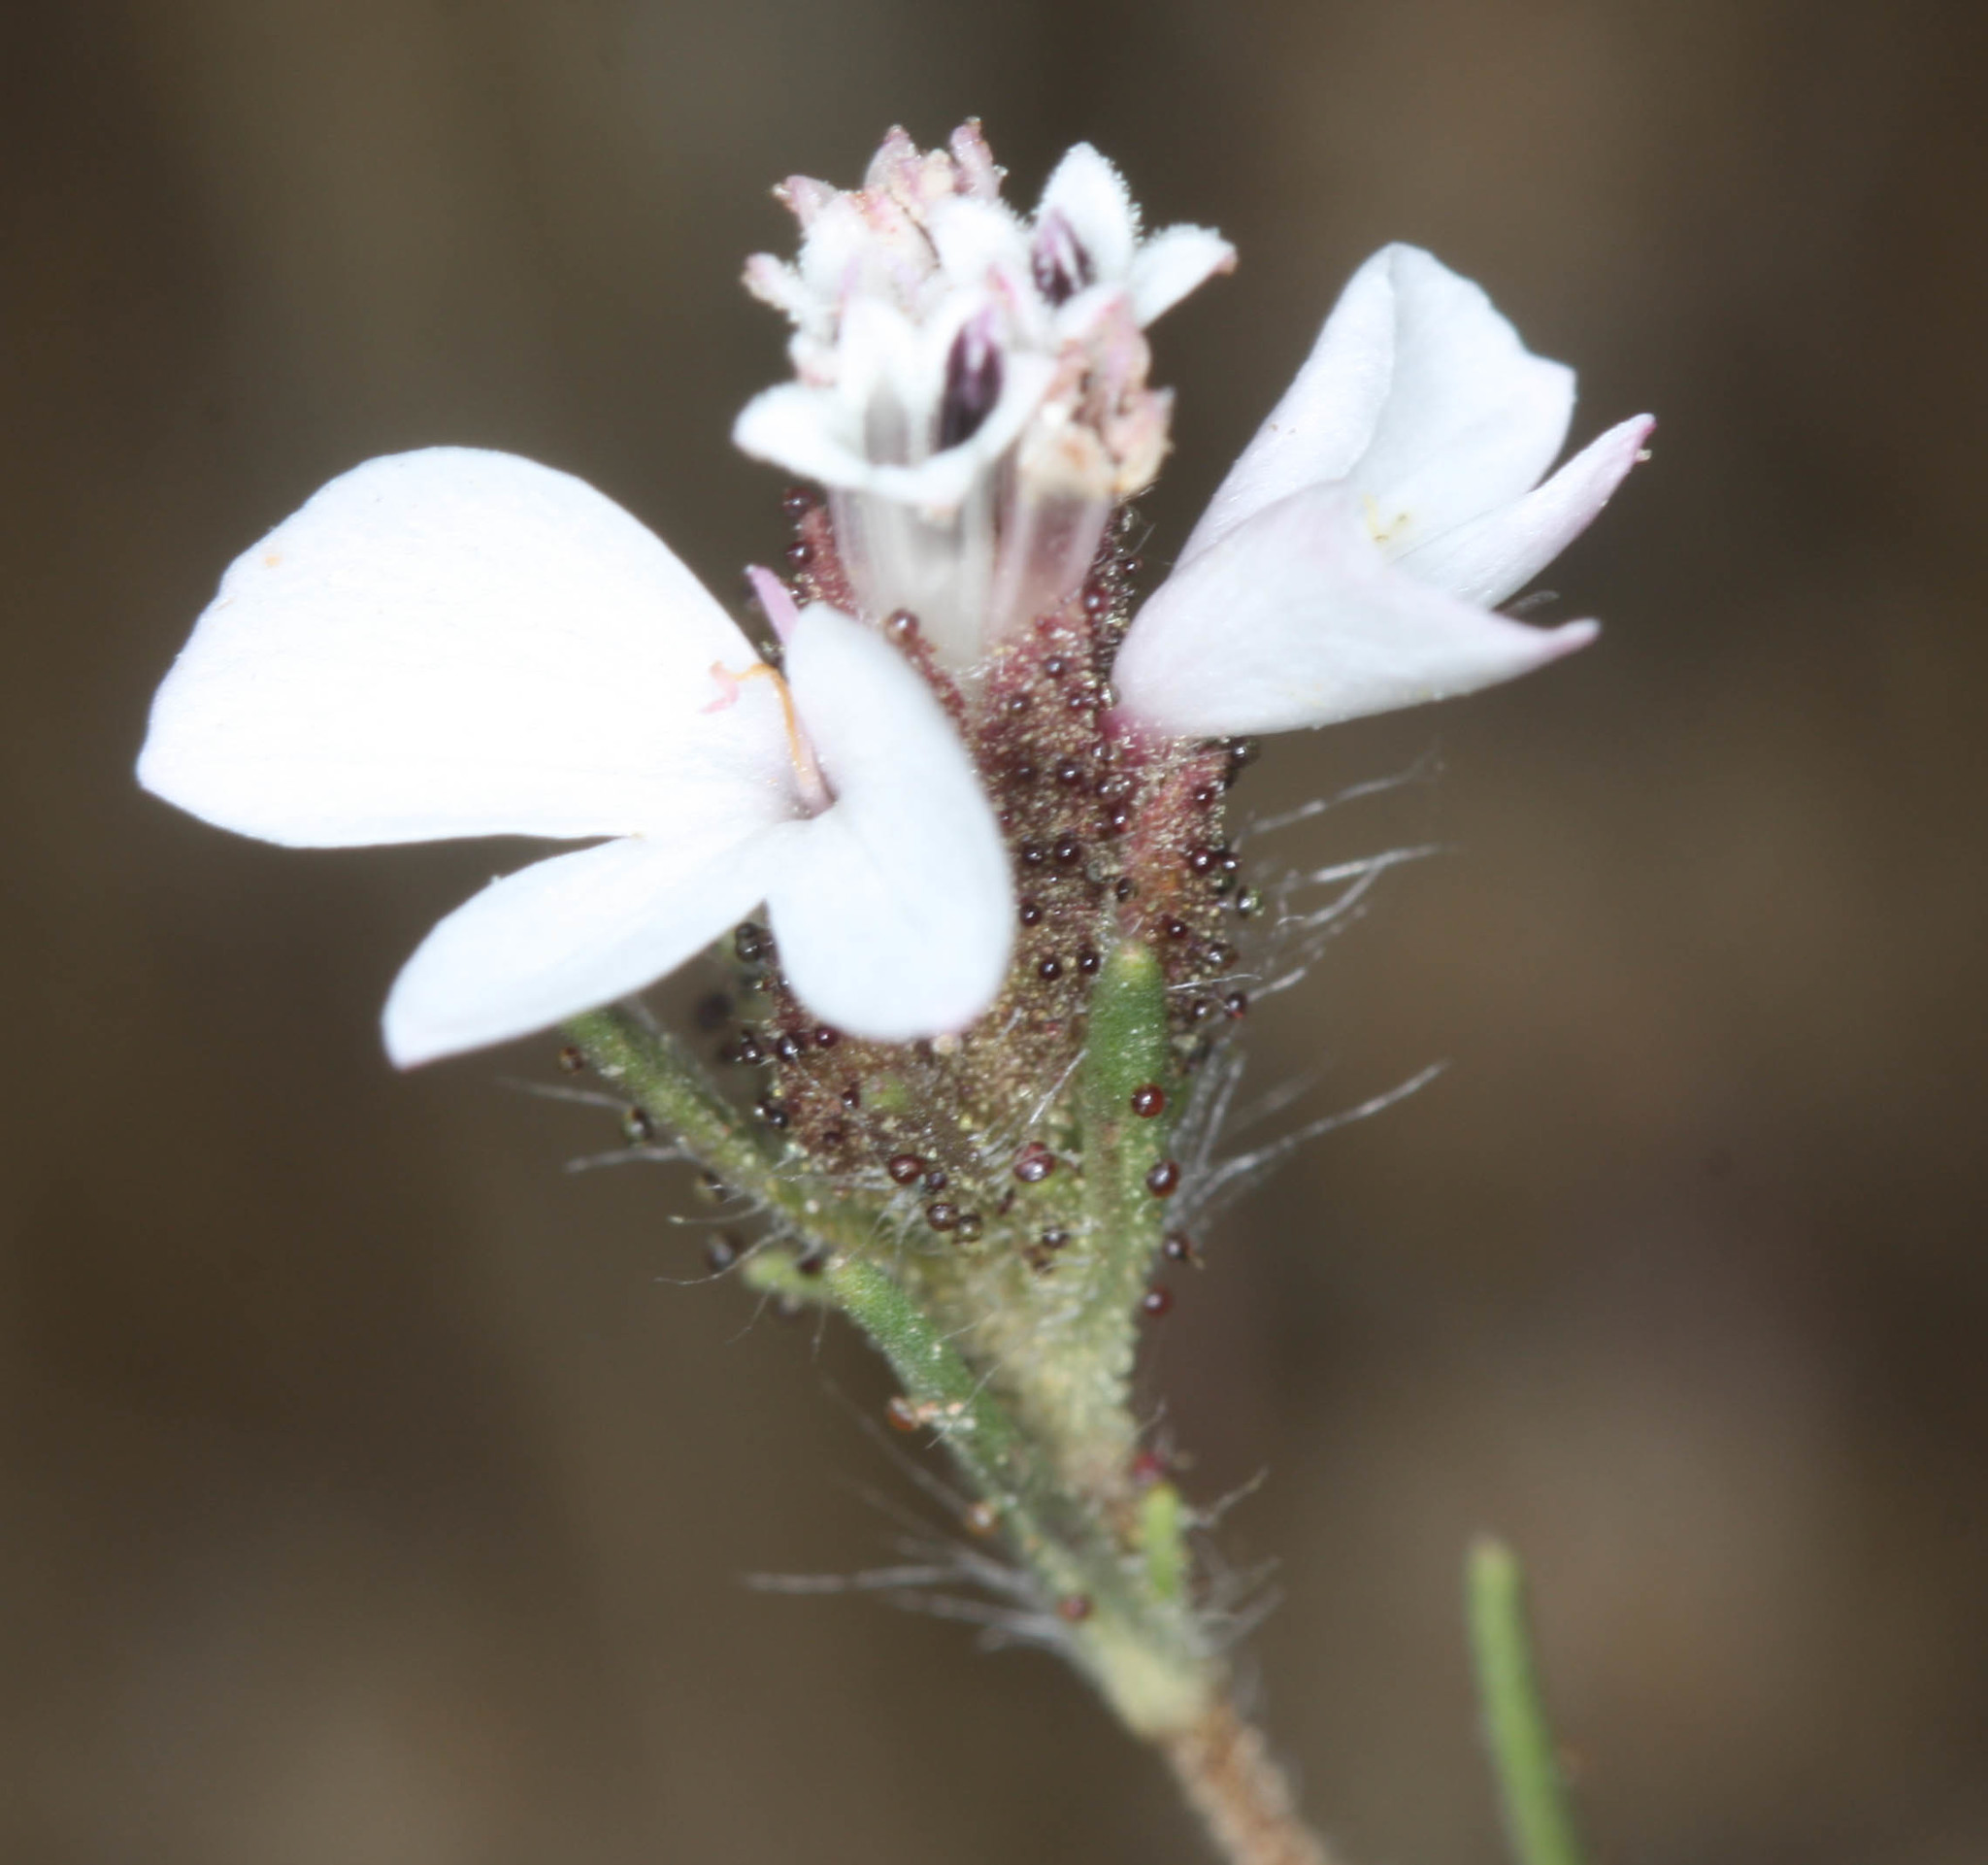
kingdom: Plantae
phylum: Tracheophyta
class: Magnoliopsida
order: Asterales
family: Asteraceae
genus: Calycadenia
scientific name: Calycadenia multiglandulosa
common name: Sticky calycadenia
